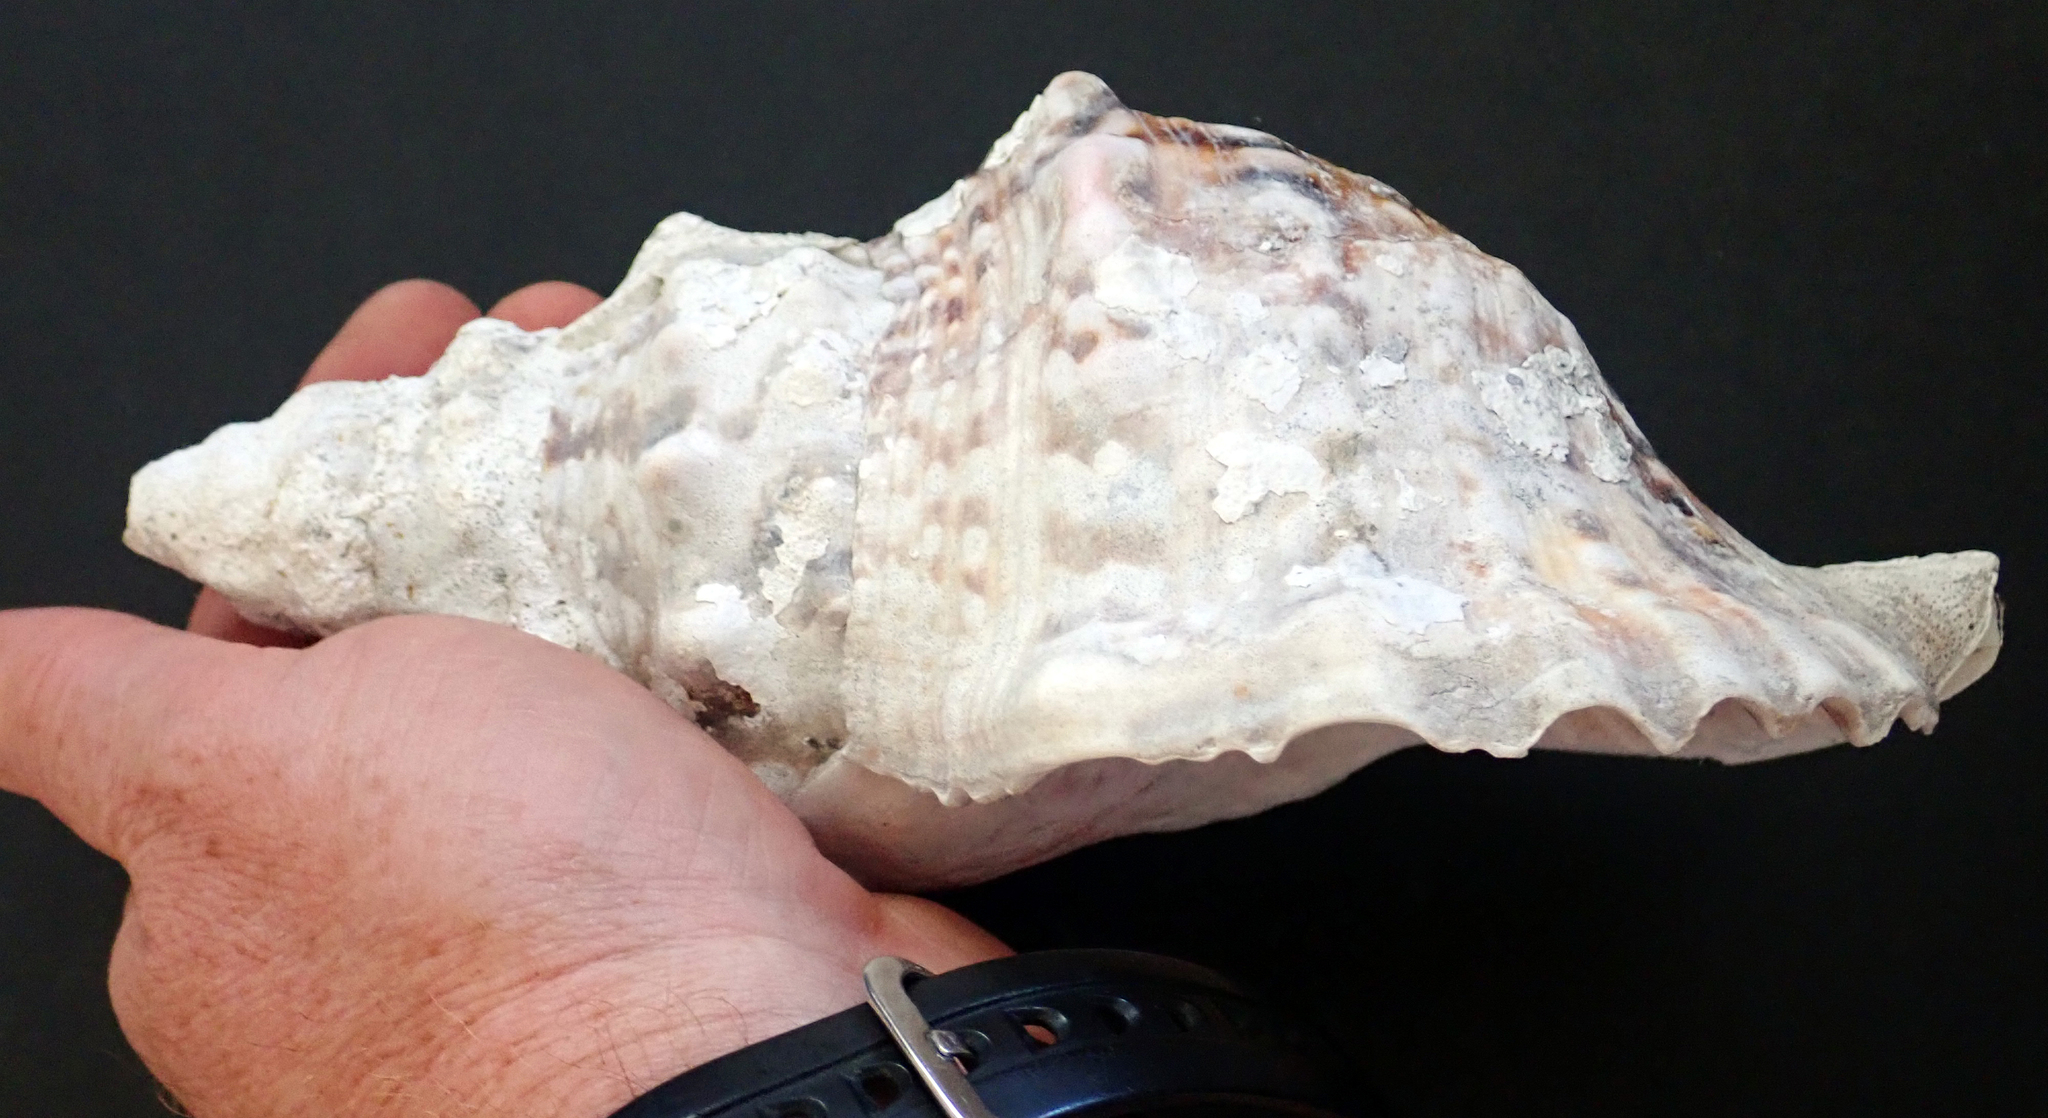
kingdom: Animalia
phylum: Mollusca
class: Gastropoda
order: Littorinimorpha
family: Charoniidae
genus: Charonia
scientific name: Charonia lampas
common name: Knobbed triton
